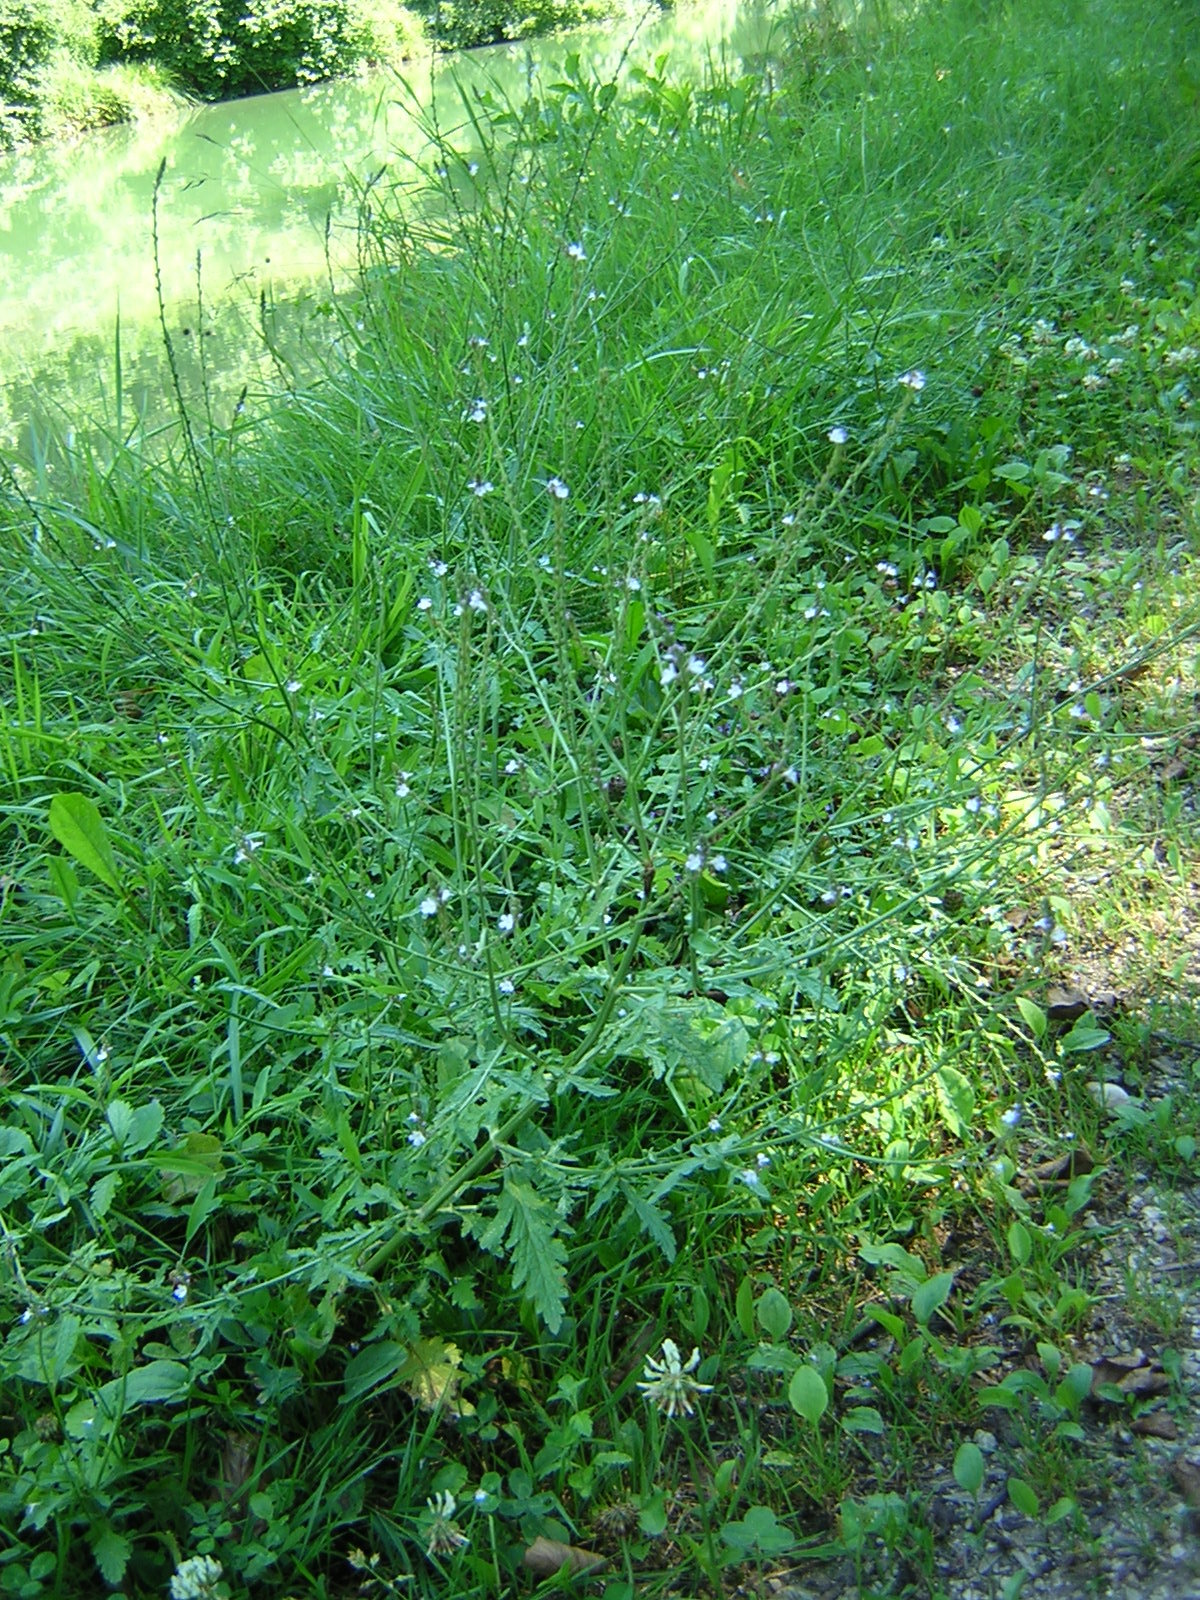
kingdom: Plantae
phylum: Tracheophyta
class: Magnoliopsida
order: Lamiales
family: Verbenaceae
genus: Verbena
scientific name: Verbena officinalis
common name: Vervain
